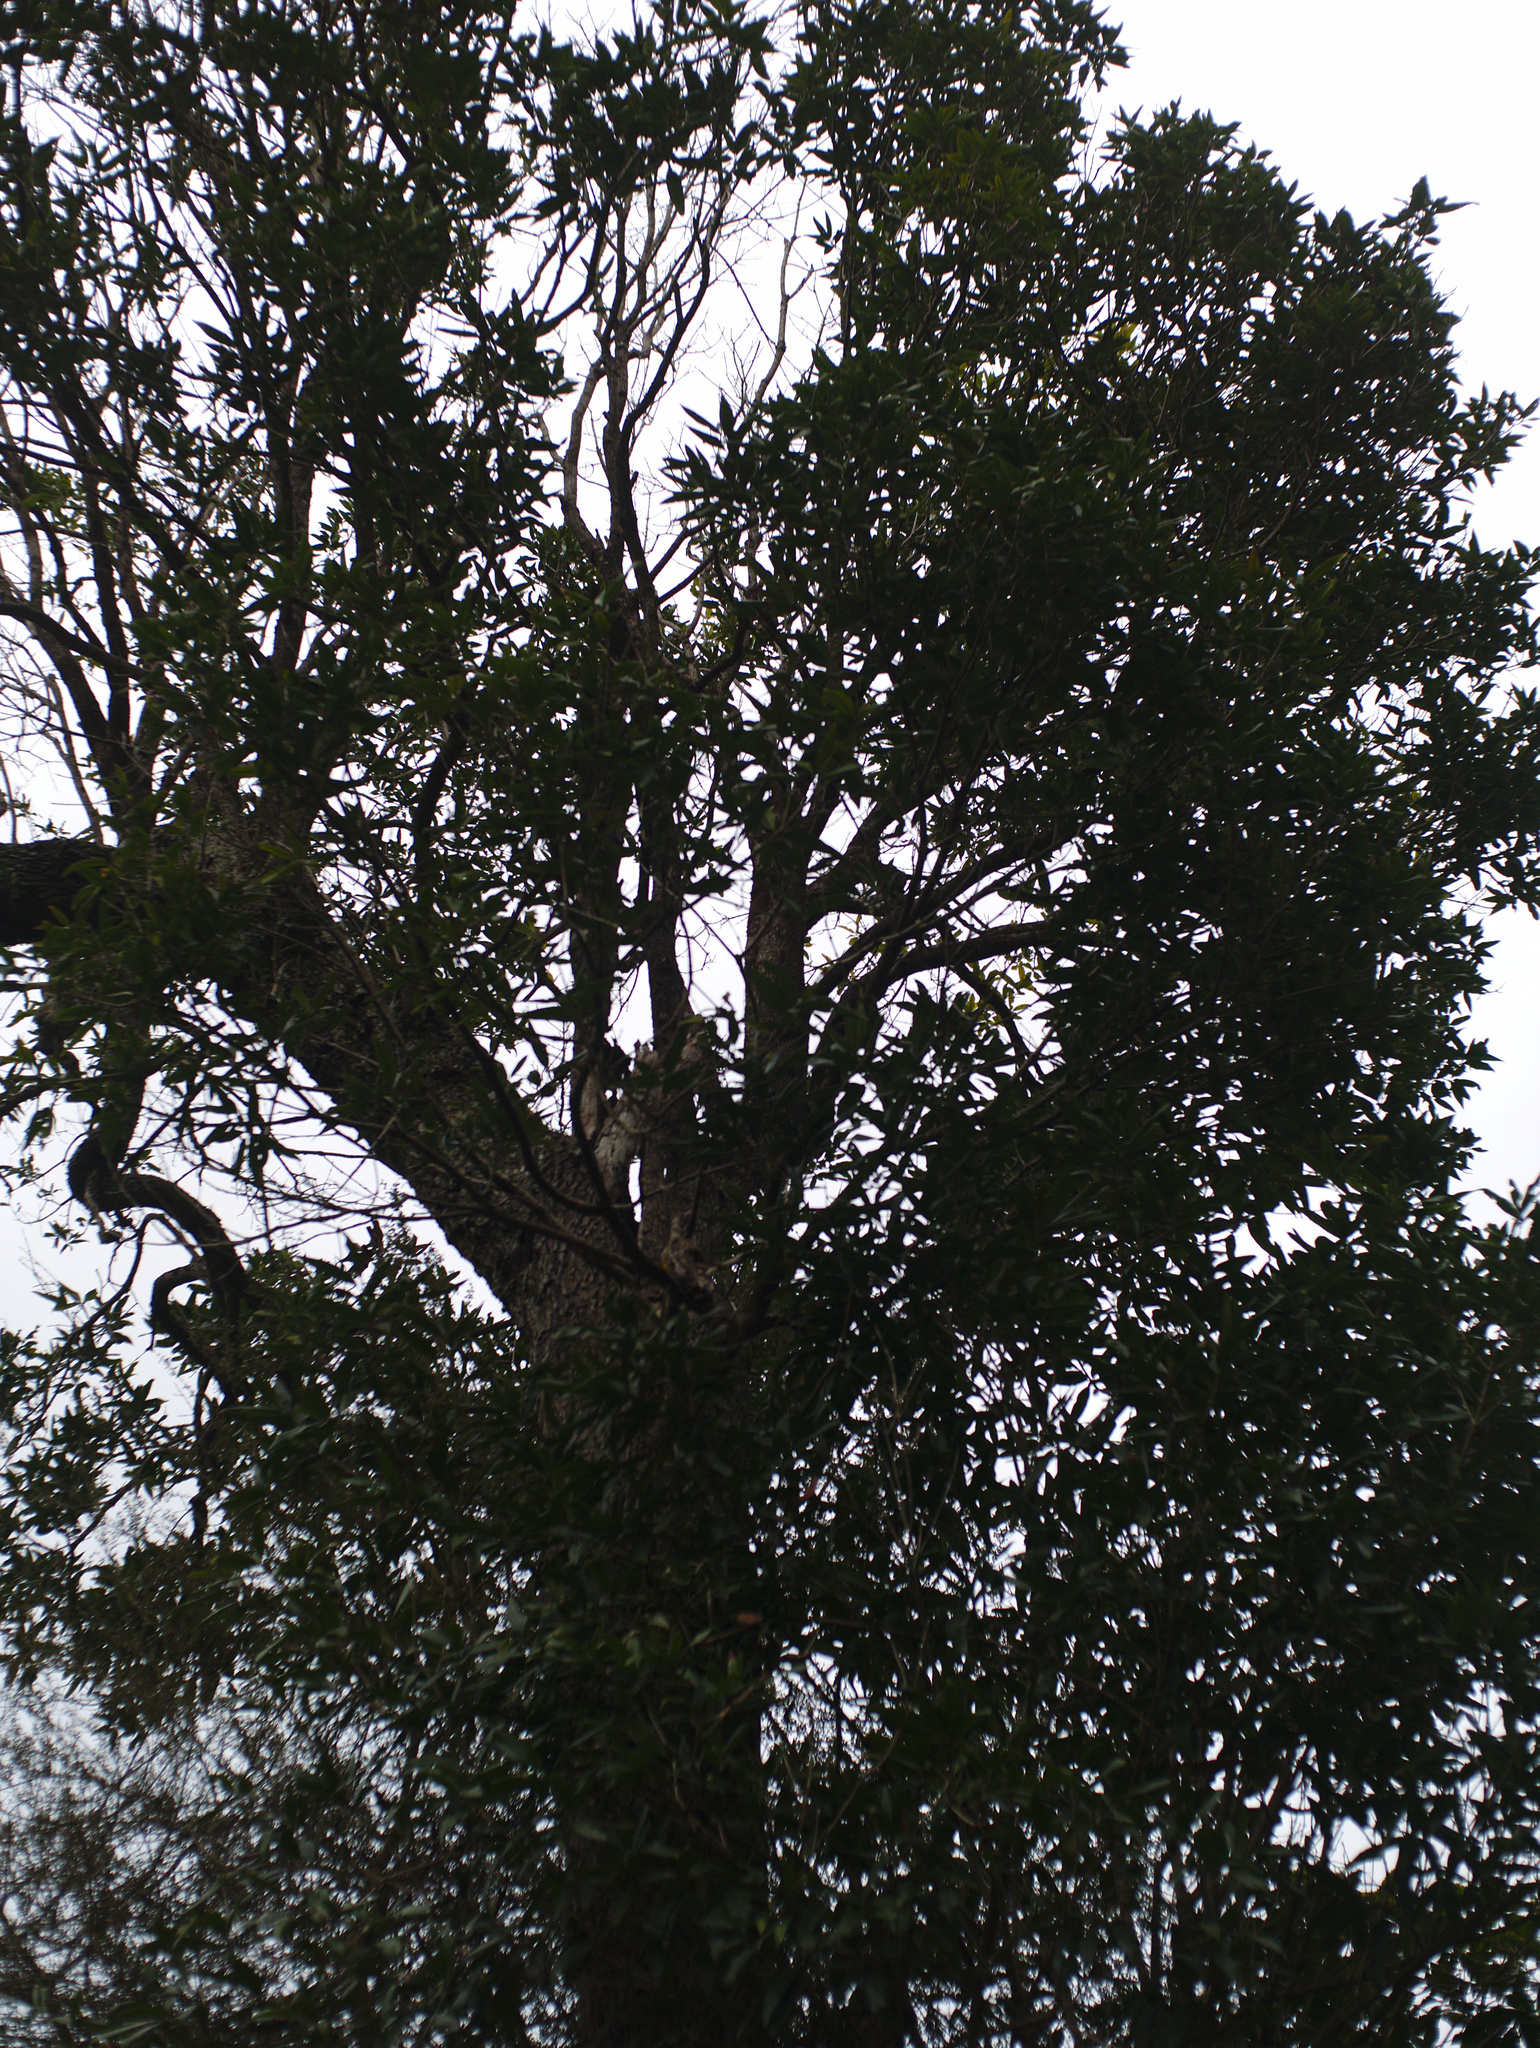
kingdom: Plantae
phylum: Tracheophyta
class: Magnoliopsida
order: Lamiales
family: Oleaceae
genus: Nestegis
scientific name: Nestegis cunninghamii
